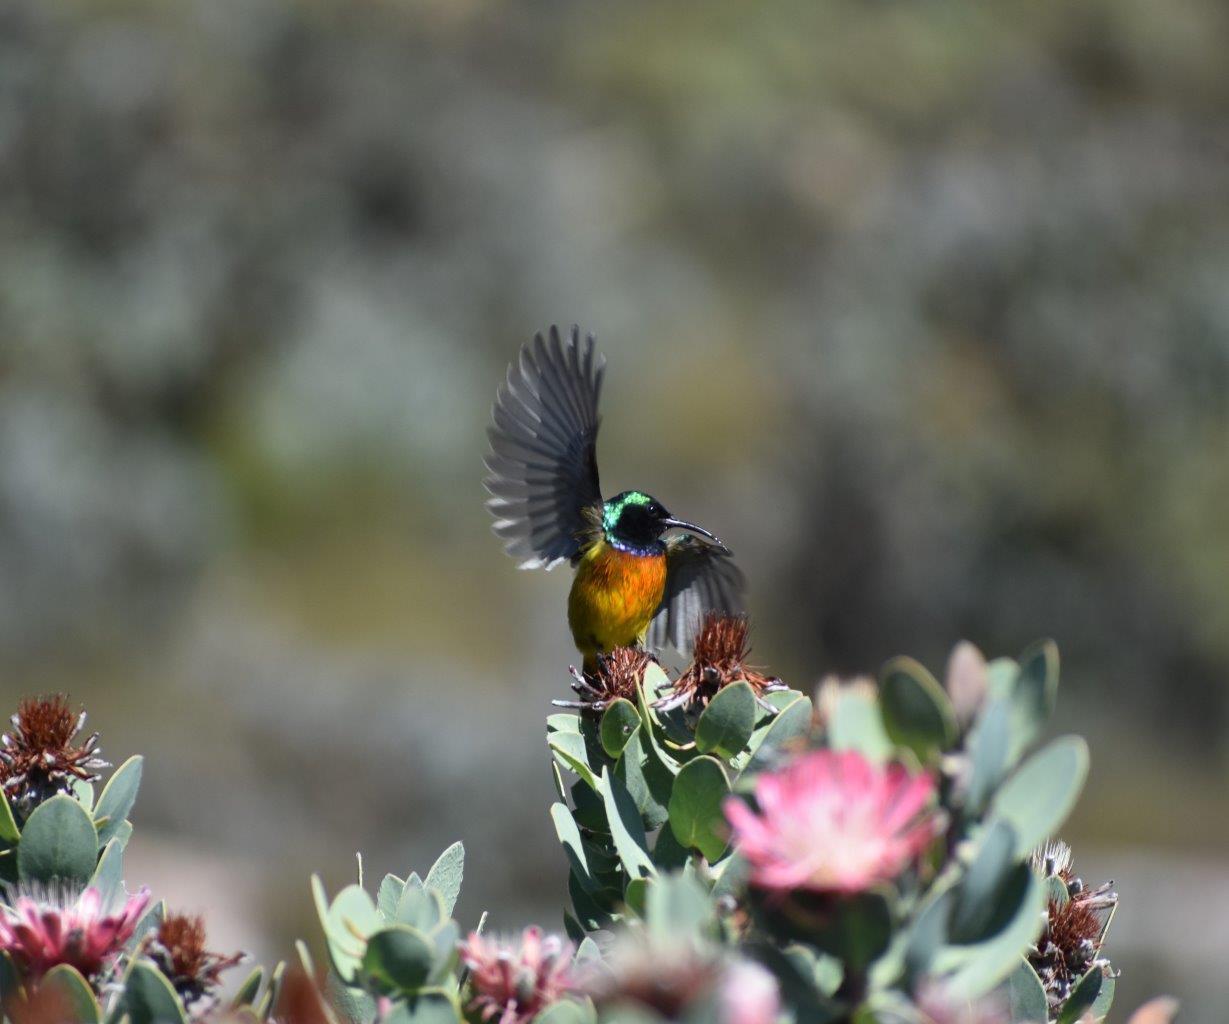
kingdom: Animalia
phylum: Chordata
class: Aves
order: Passeriformes
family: Nectariniidae
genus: Anthobaphes
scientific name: Anthobaphes violacea
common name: Orange-breasted sunbird
